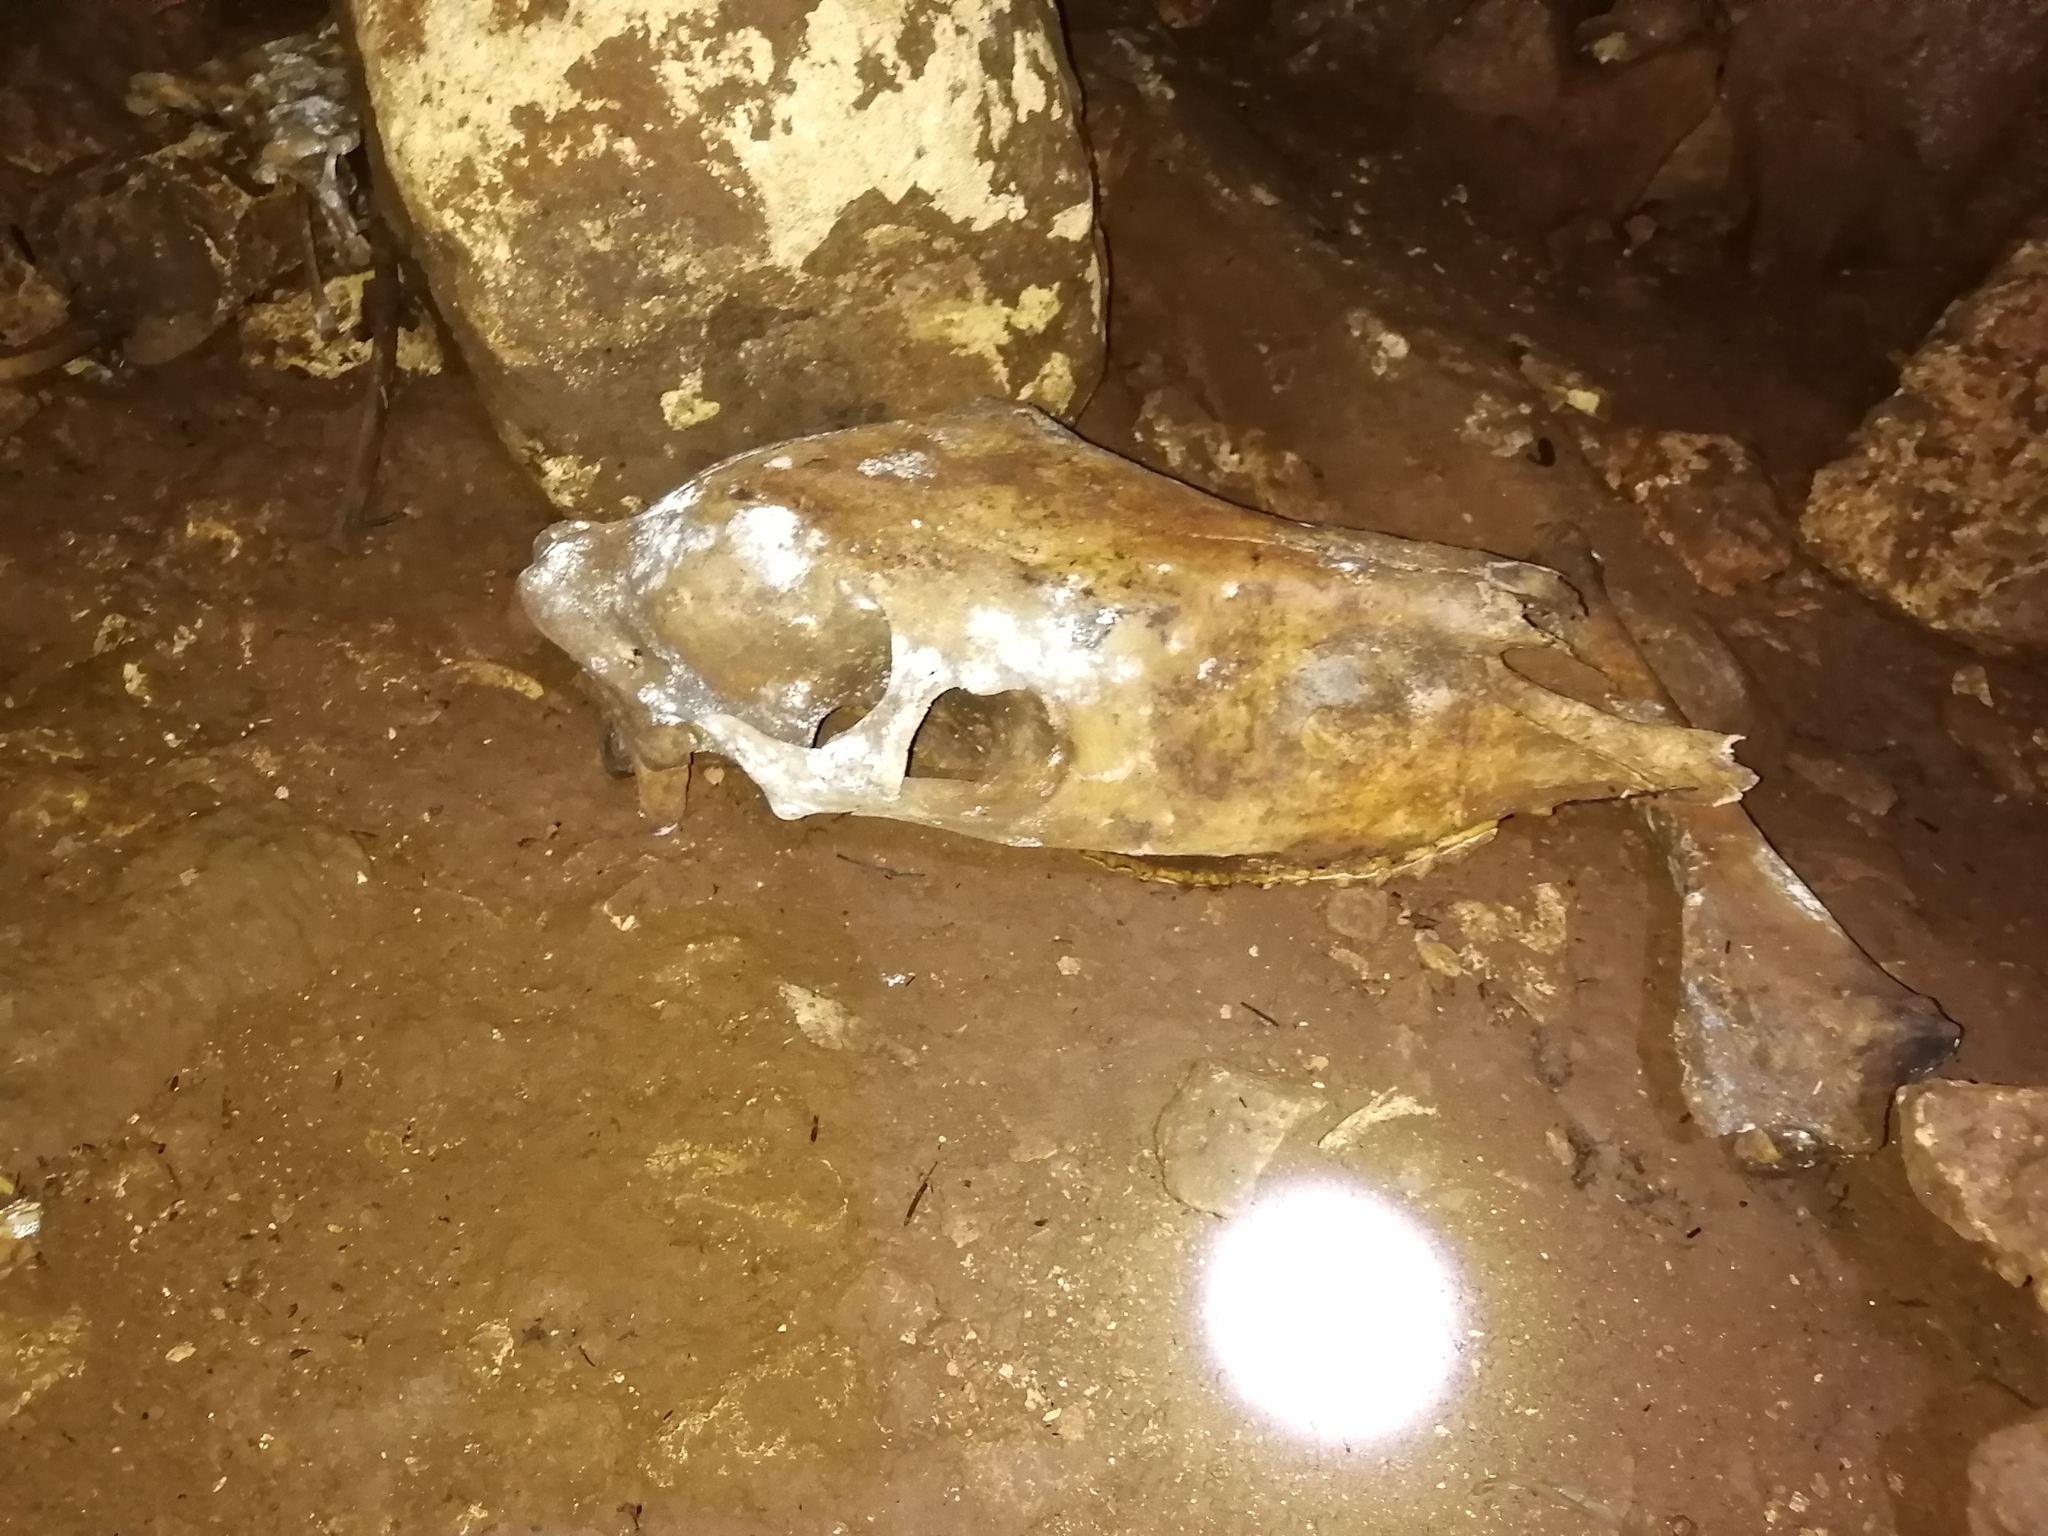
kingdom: Animalia
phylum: Chordata
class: Mammalia
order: Perissodactyla
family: Equidae
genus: Equus
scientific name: Equus caballus
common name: Horse
